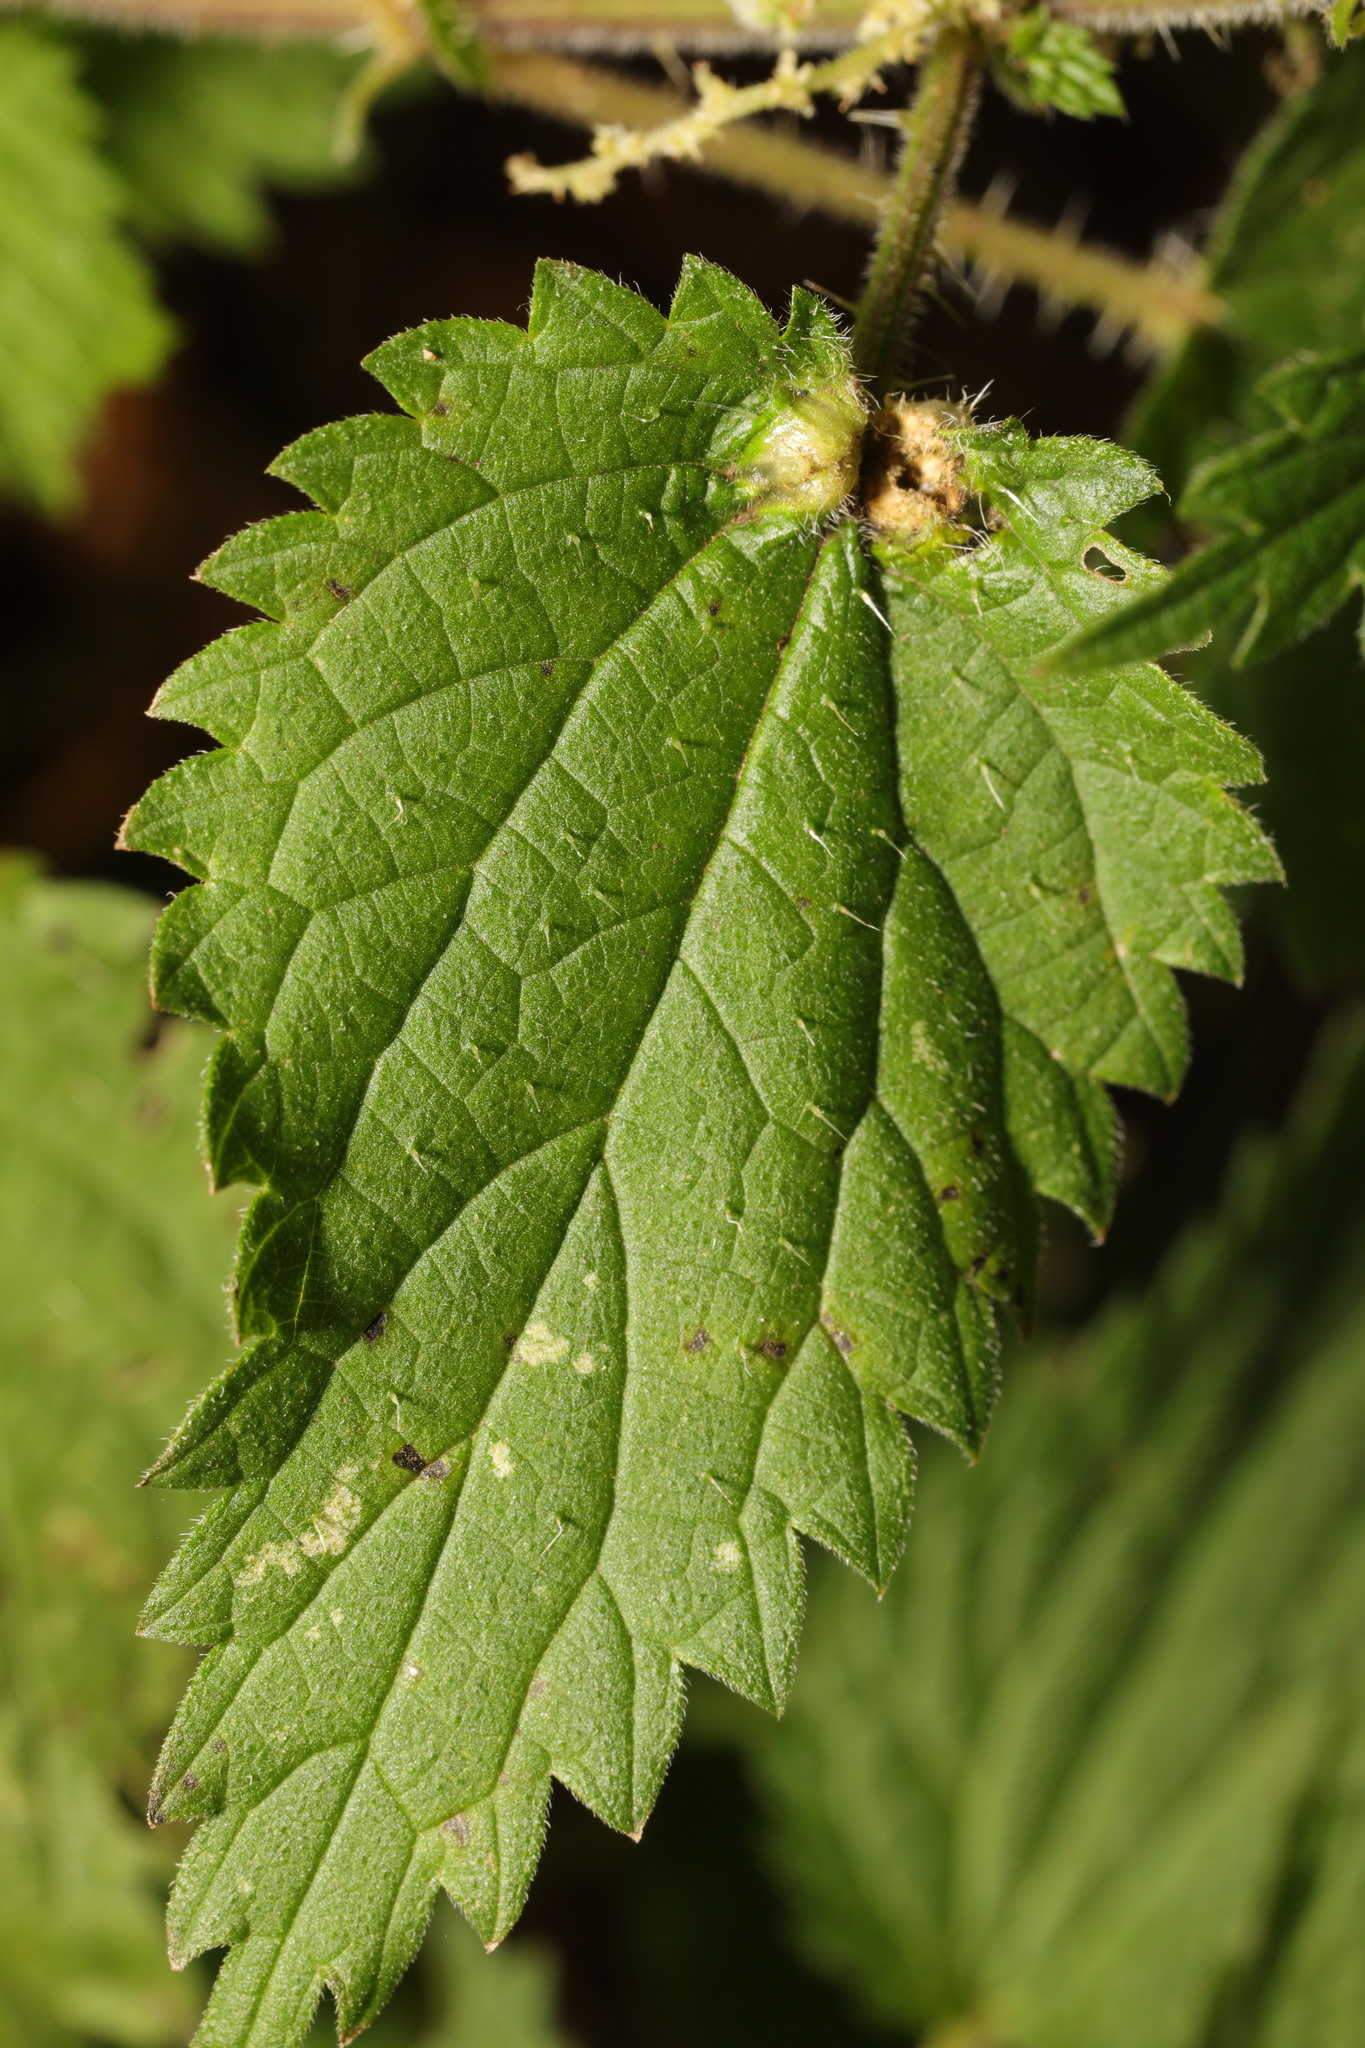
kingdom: Animalia
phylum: Arthropoda
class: Insecta
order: Diptera
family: Cecidomyiidae
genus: Dasineura
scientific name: Dasineura urticae
